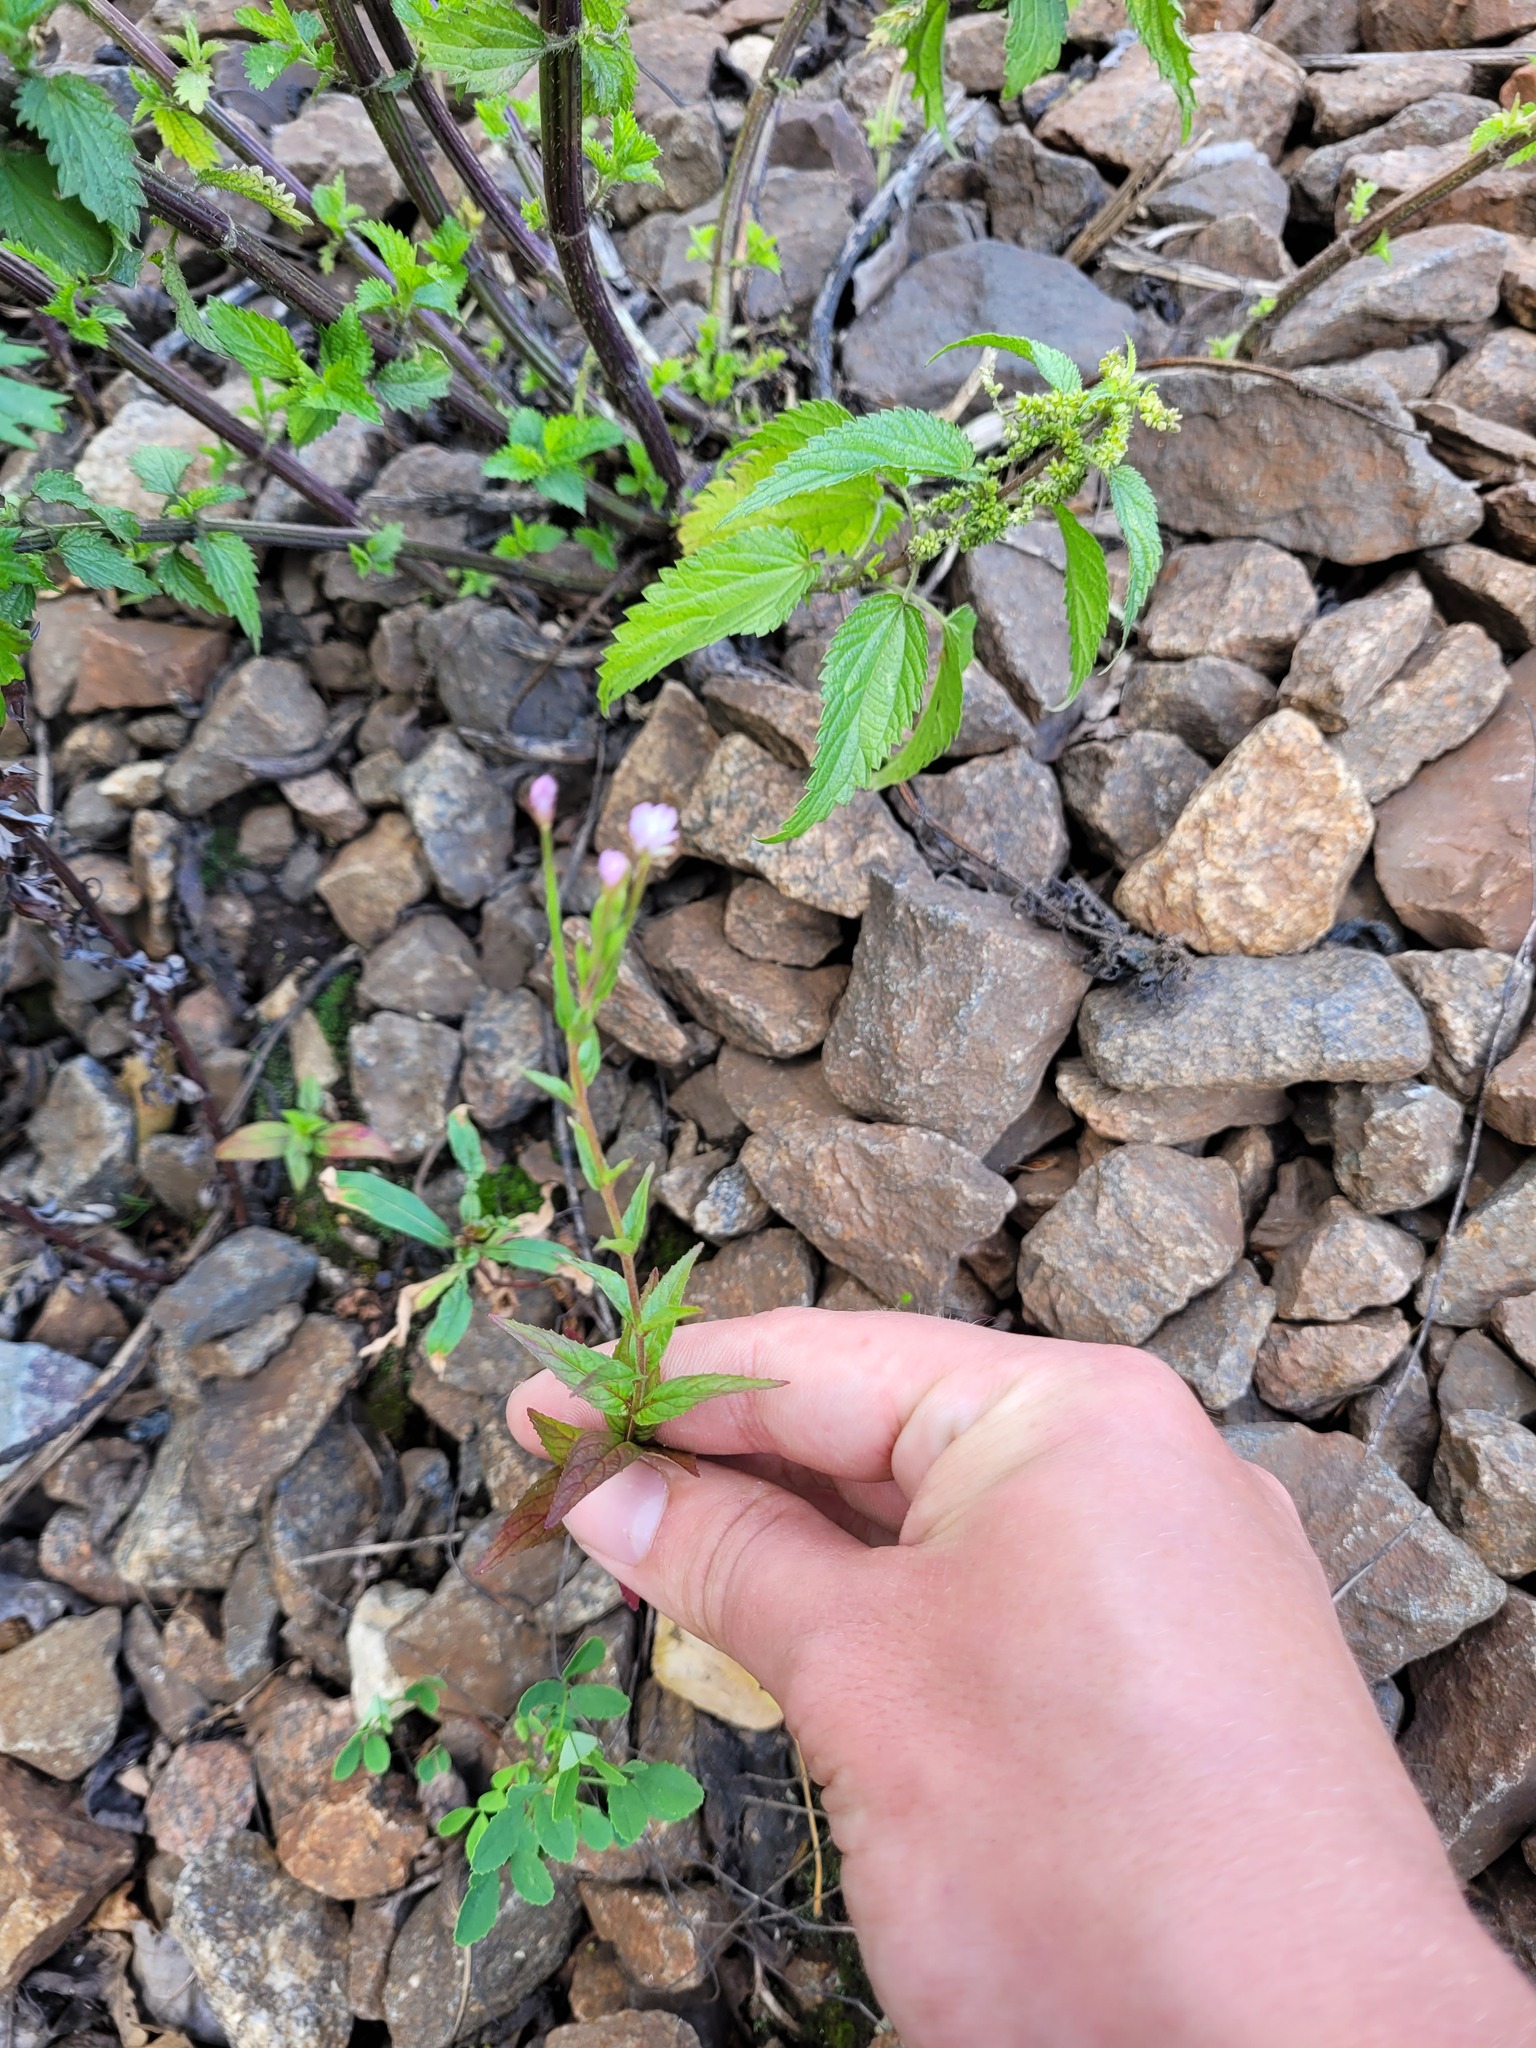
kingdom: Plantae
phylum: Tracheophyta
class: Magnoliopsida
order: Myrtales
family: Onagraceae
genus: Epilobium
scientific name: Epilobium ciliatum
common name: American willowherb
